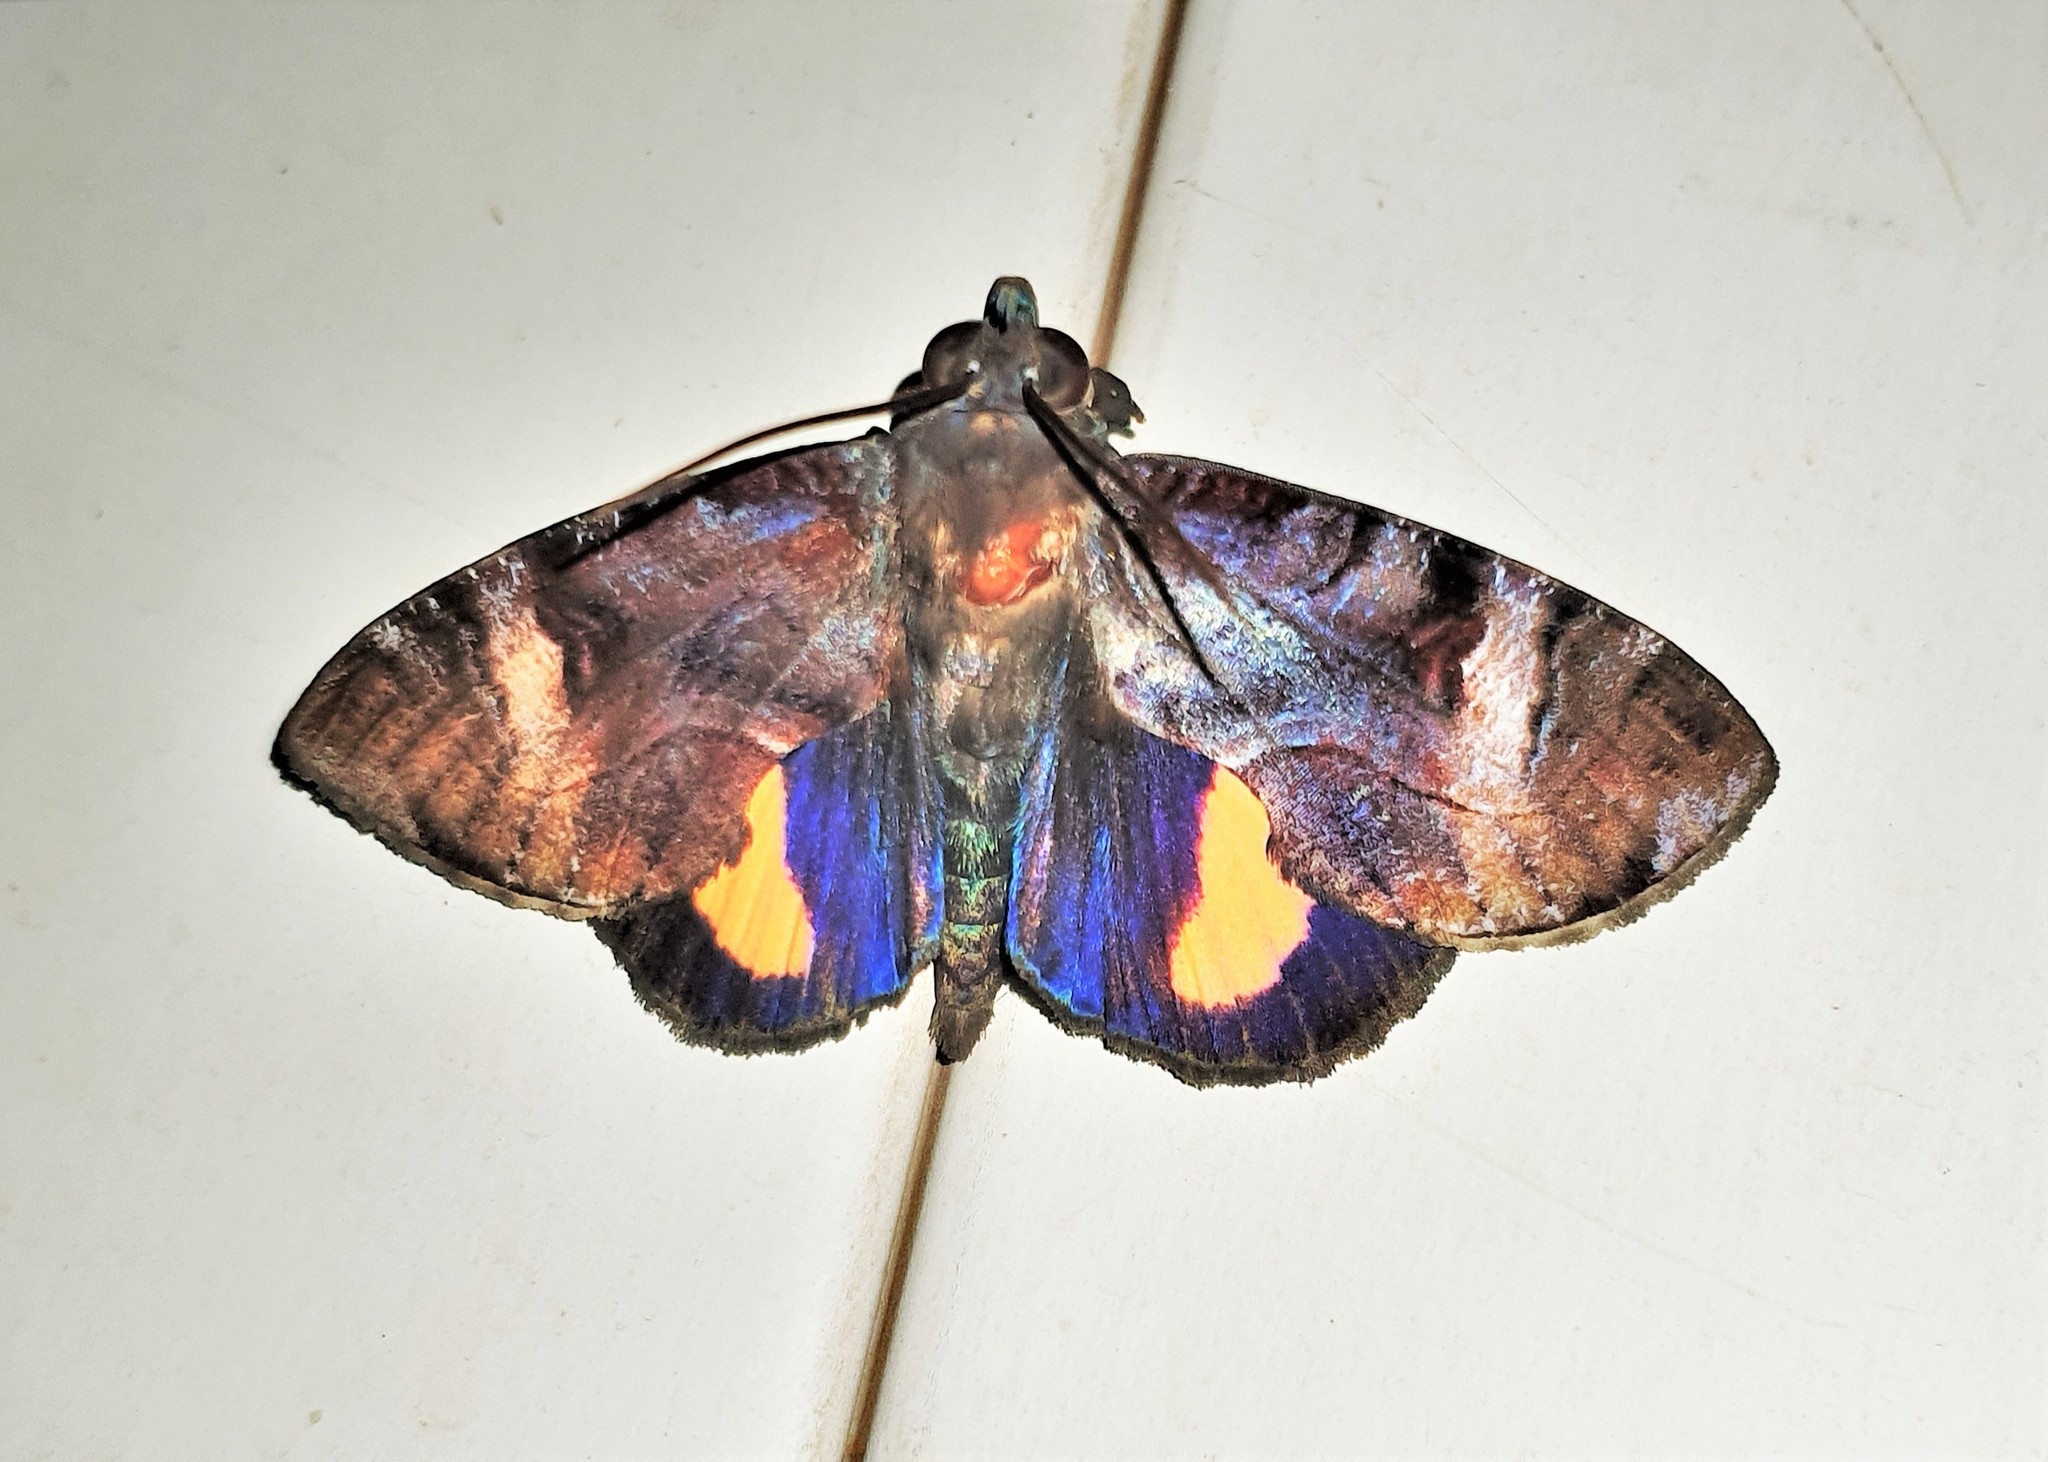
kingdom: Animalia
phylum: Arthropoda
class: Insecta
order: Lepidoptera
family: Erebidae
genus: Ferenta
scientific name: Ferenta stolliana
